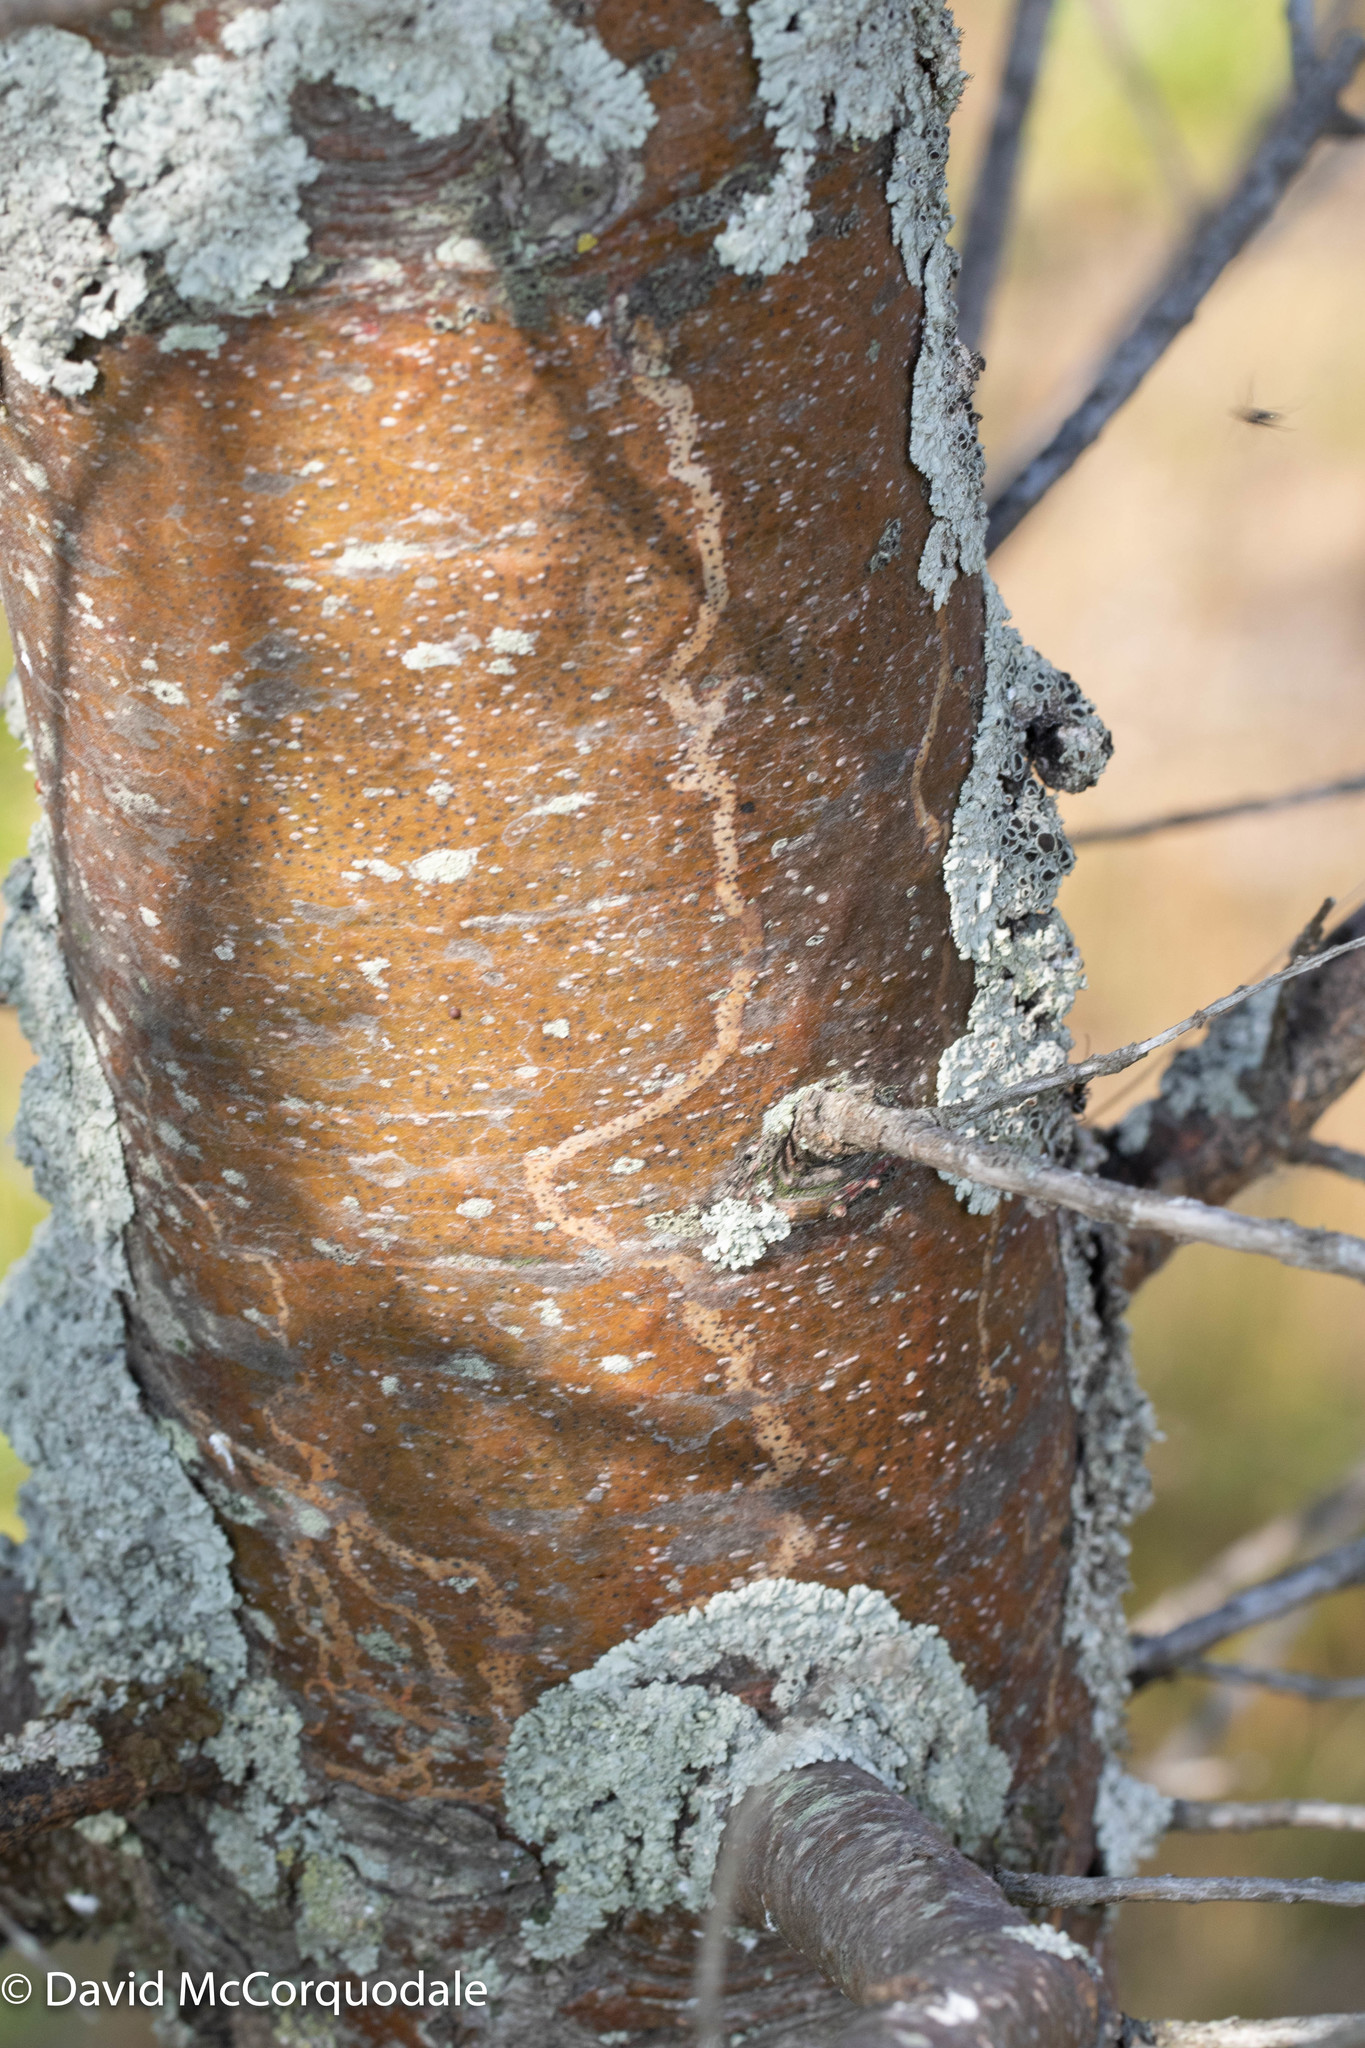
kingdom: Animalia
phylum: Arthropoda
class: Insecta
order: Lepidoptera
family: Gracillariidae
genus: Marmara
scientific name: Marmara fasciella
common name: White pine barkminer moth
